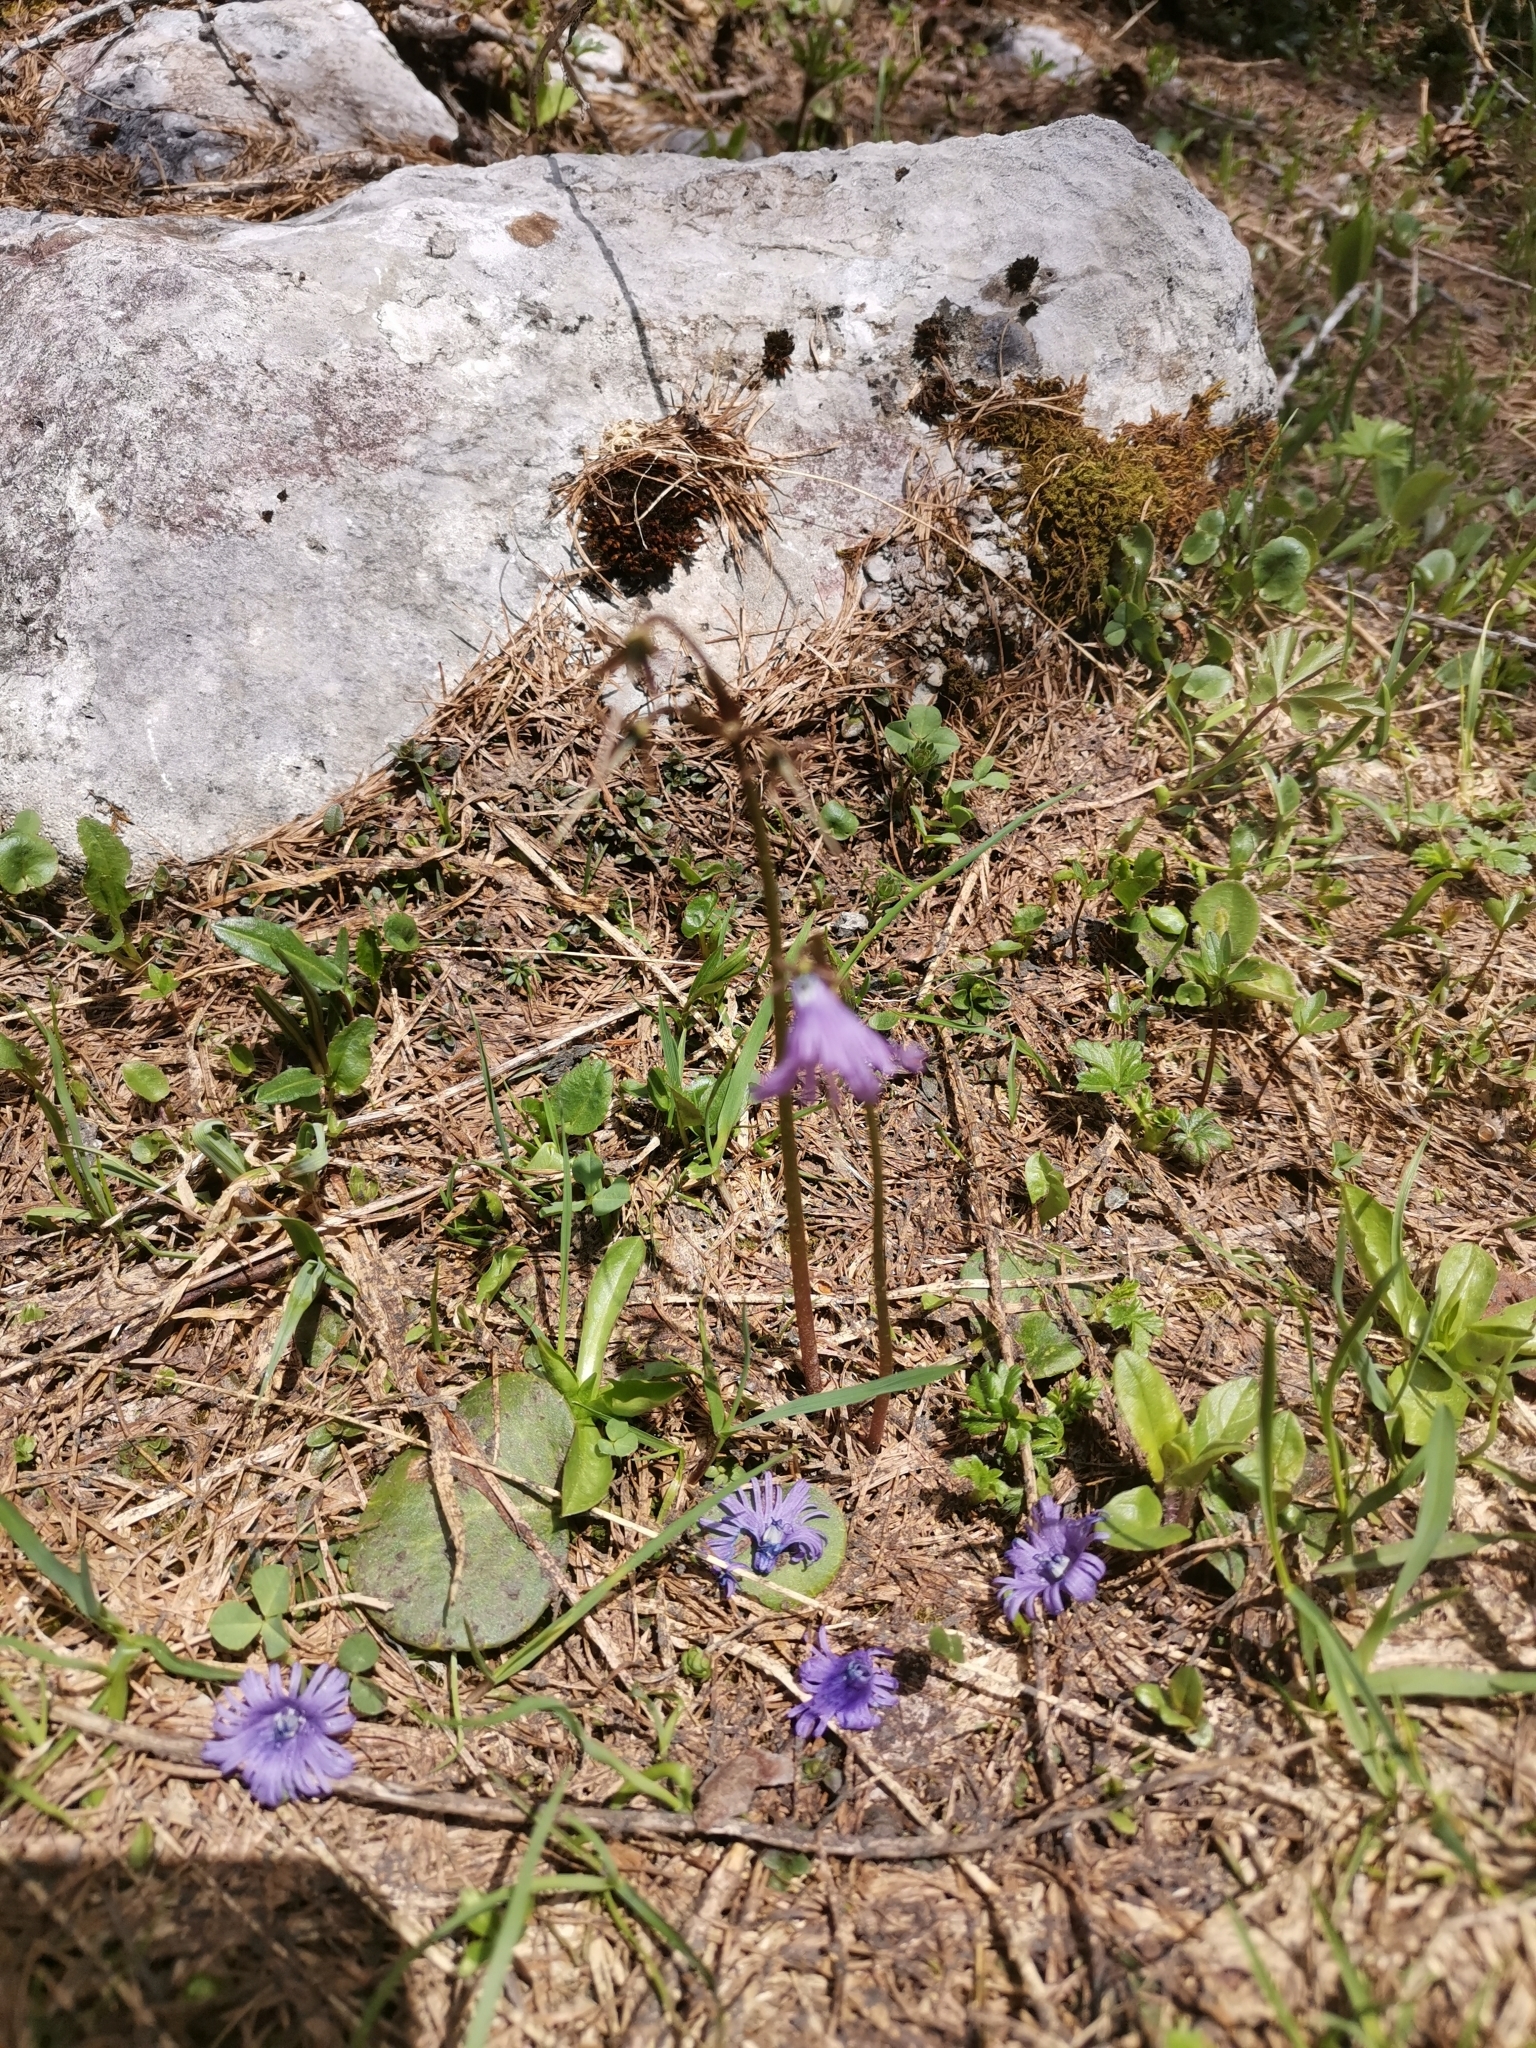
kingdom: Plantae
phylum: Tracheophyta
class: Magnoliopsida
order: Ericales
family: Primulaceae
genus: Soldanella
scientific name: Soldanella alpina
